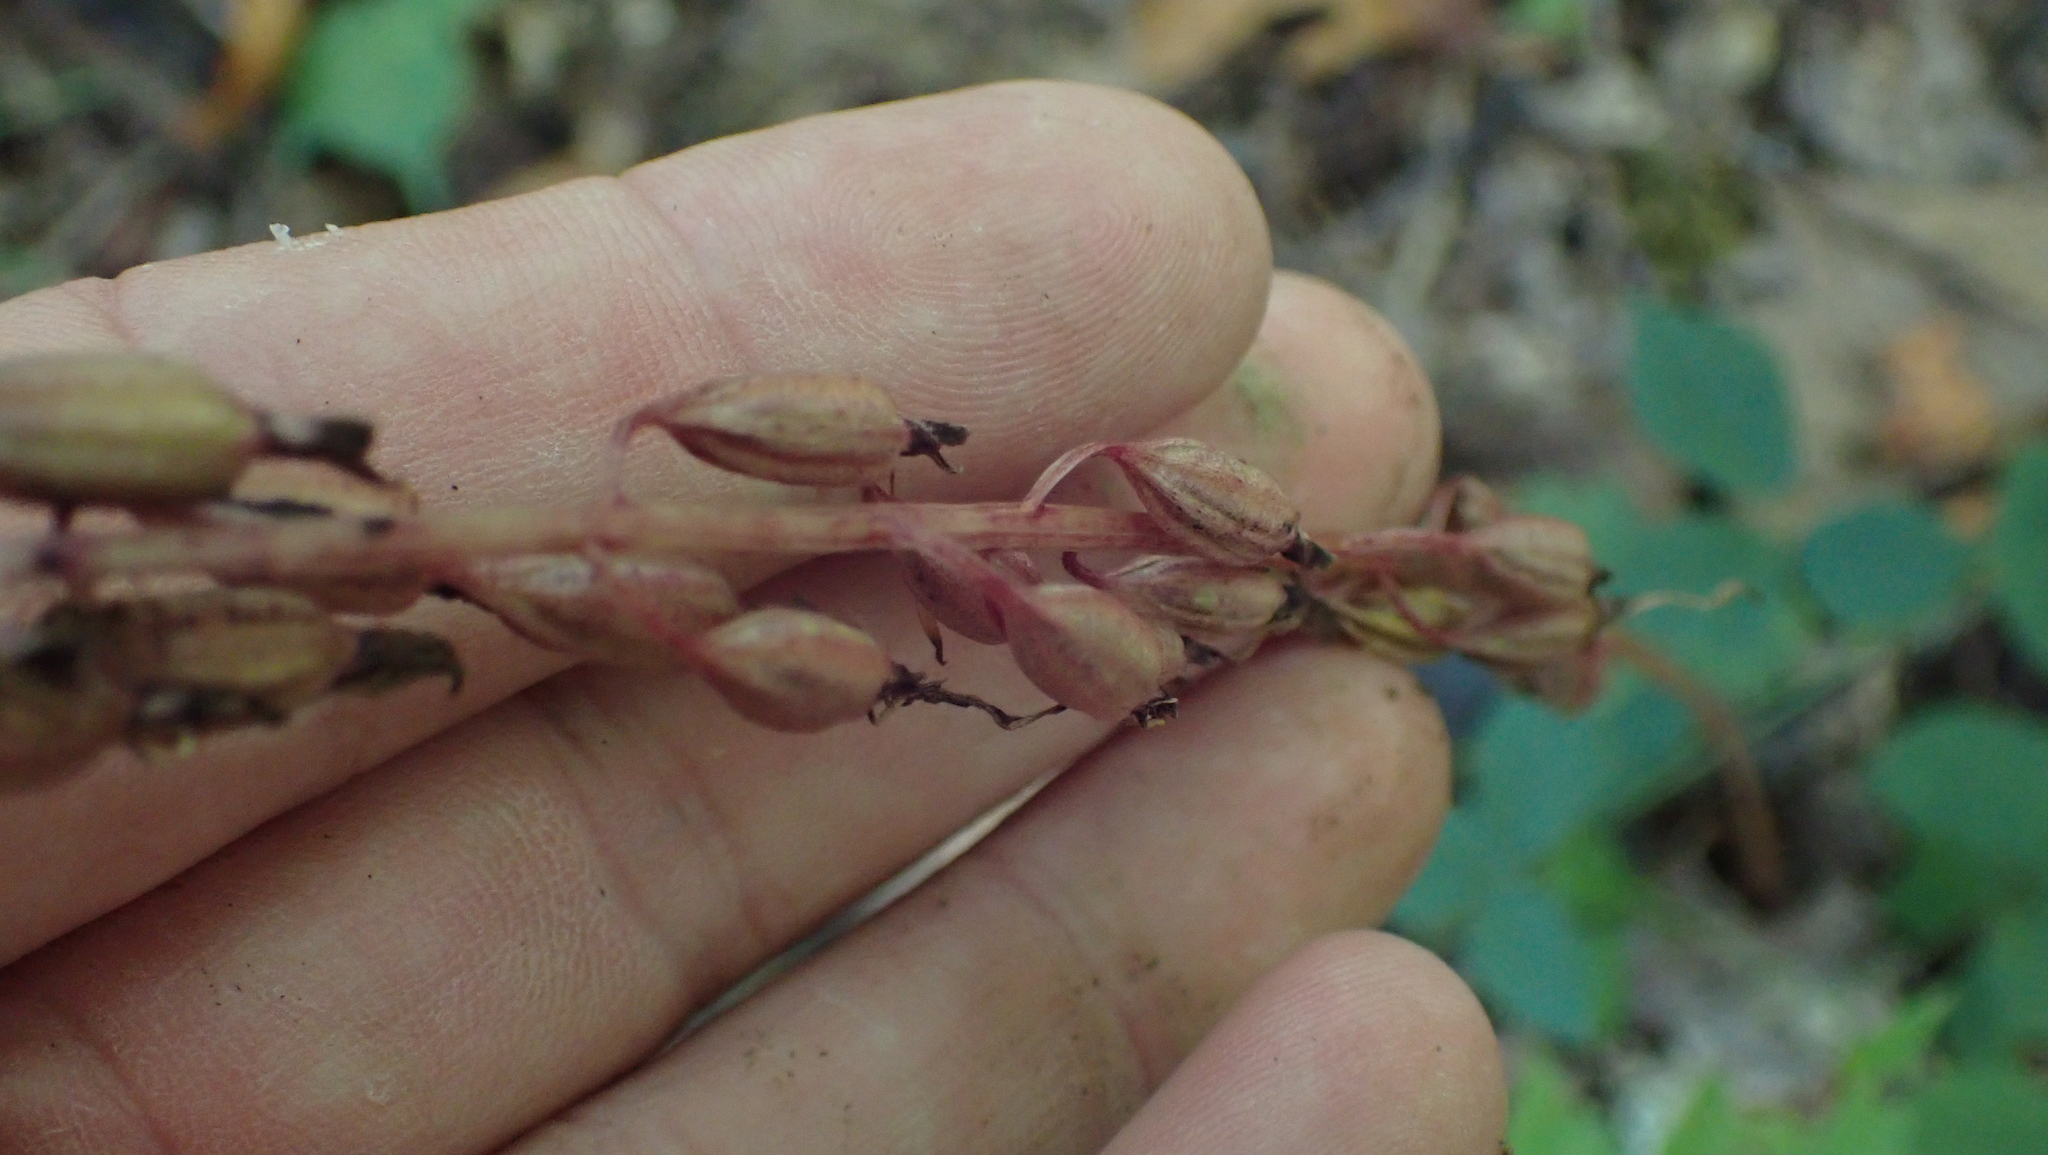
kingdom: Plantae
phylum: Tracheophyta
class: Liliopsida
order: Asparagales
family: Orchidaceae
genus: Tipularia
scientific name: Tipularia discolor
